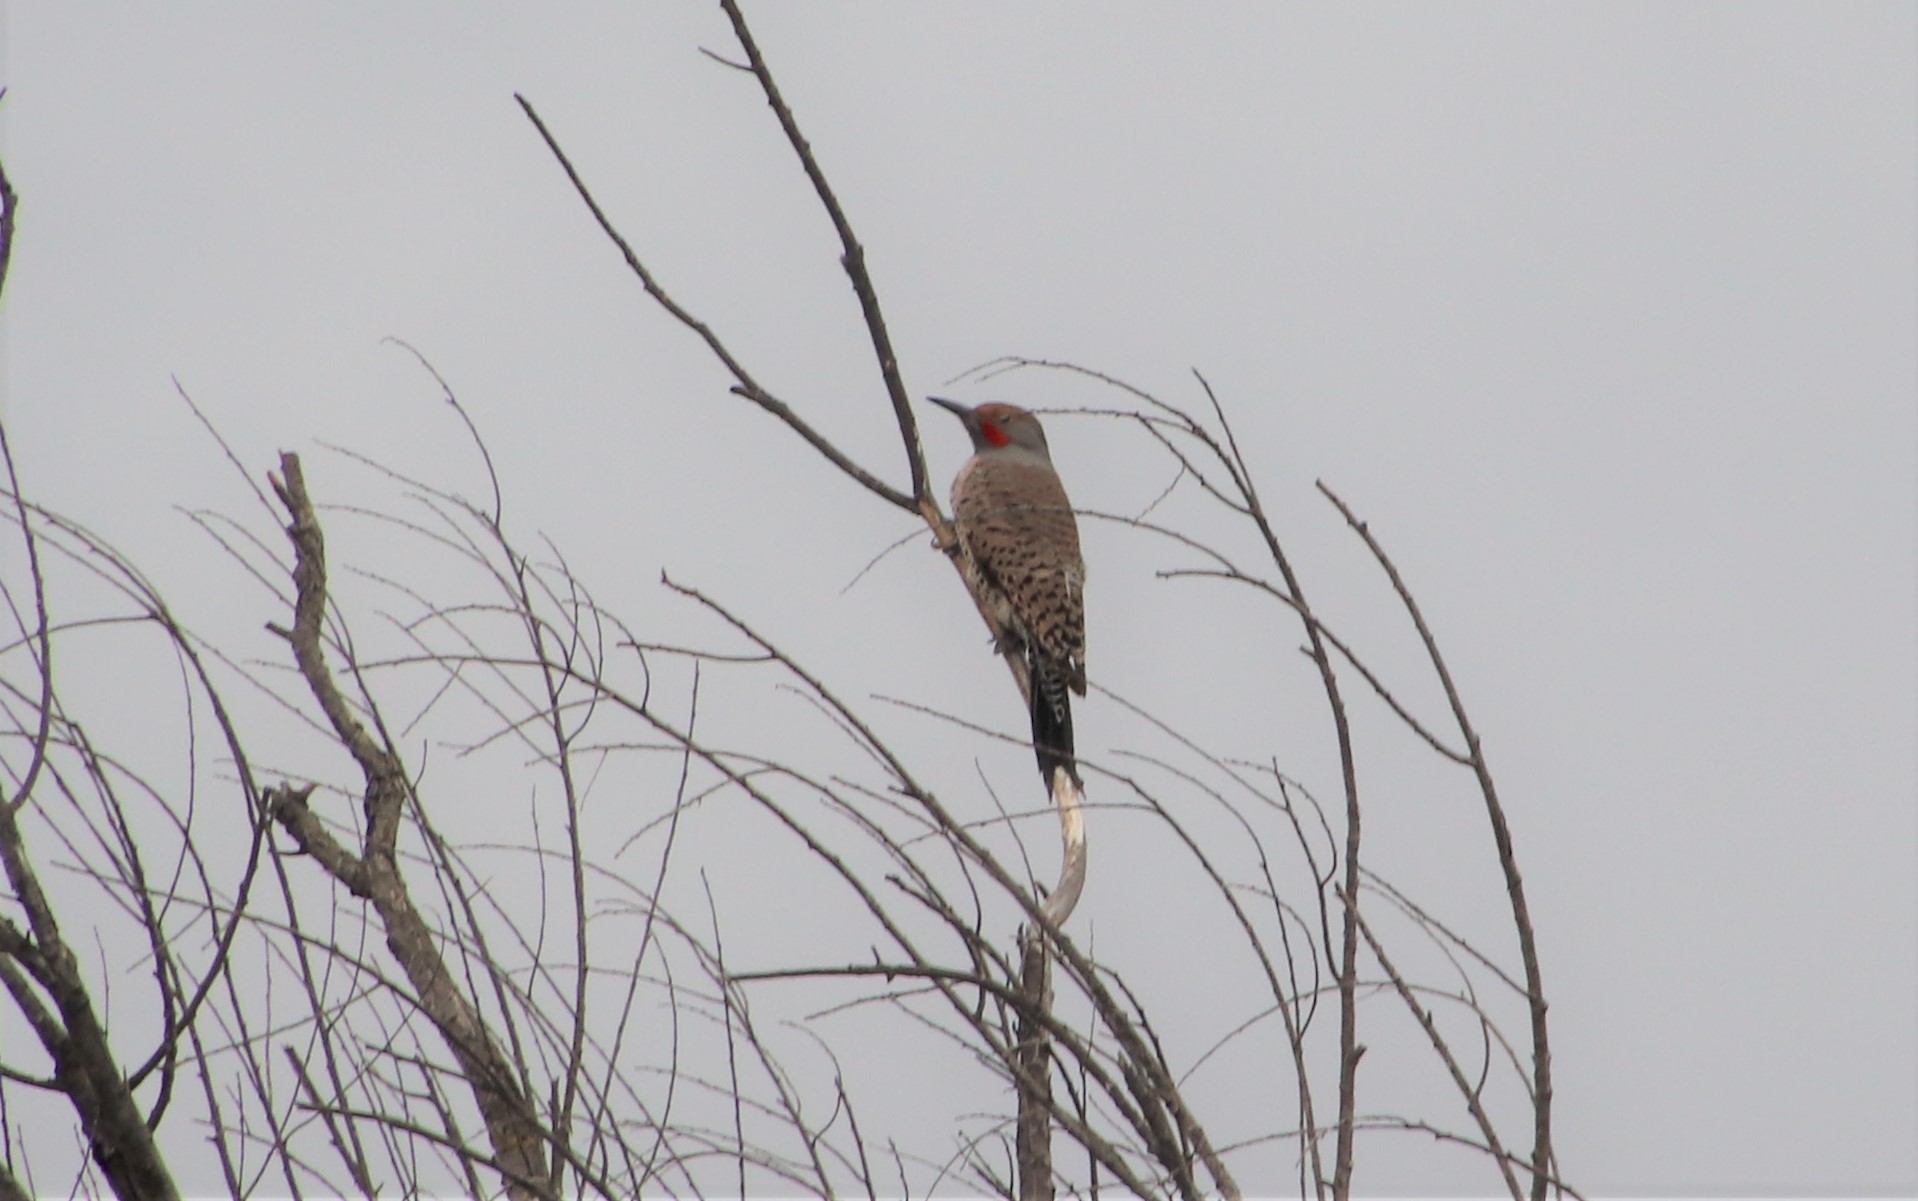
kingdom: Animalia
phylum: Chordata
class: Aves
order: Piciformes
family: Picidae
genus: Colaptes
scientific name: Colaptes auratus
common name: Northern flicker
